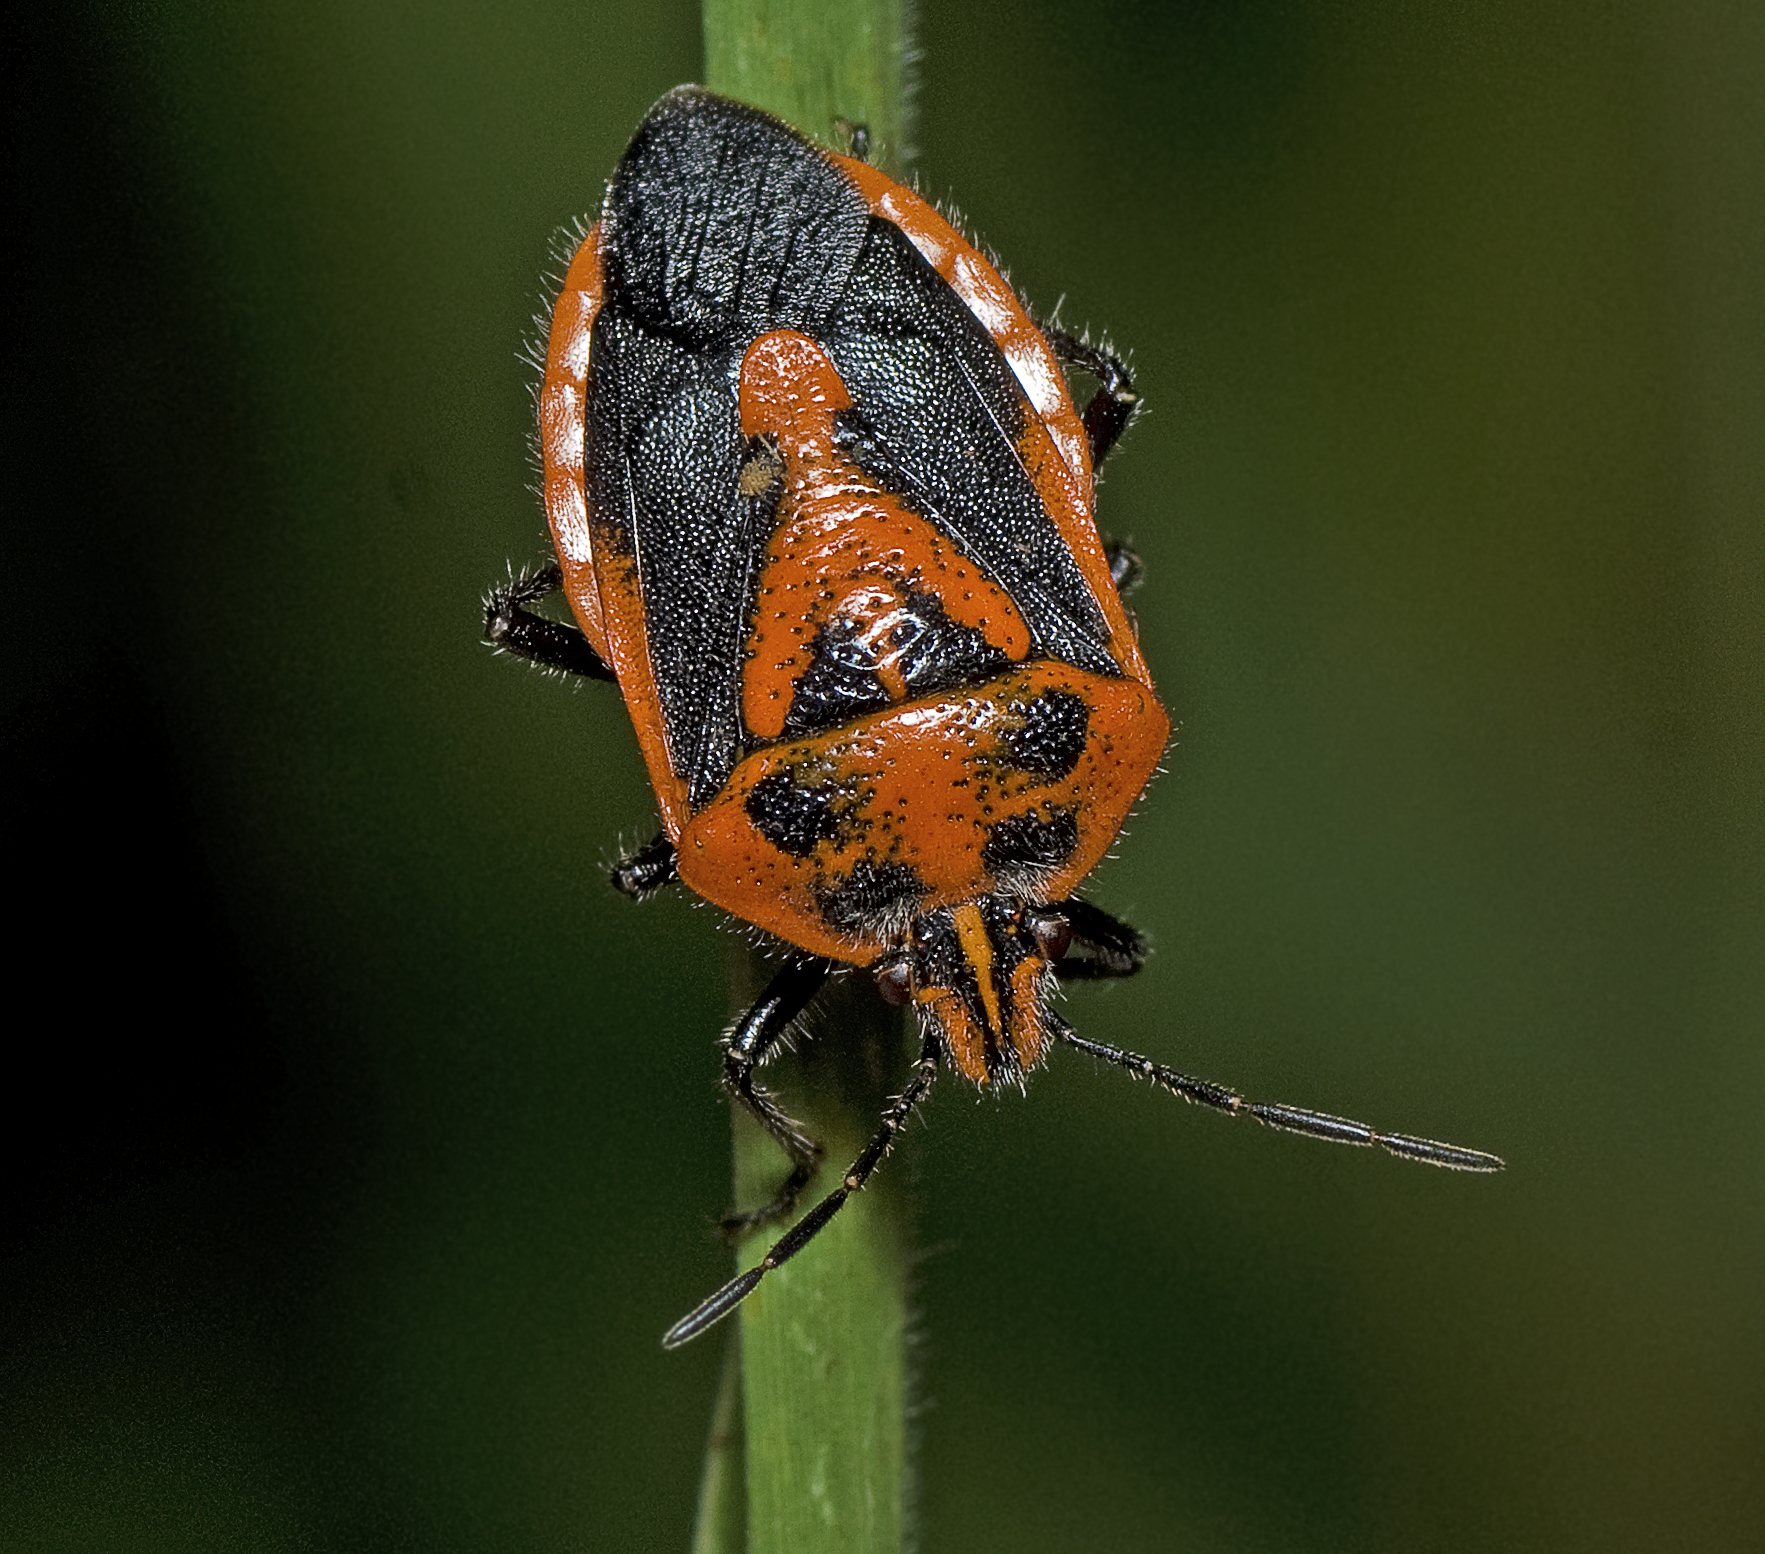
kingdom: Animalia
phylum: Arthropoda
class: Insecta
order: Hemiptera
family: Pentatomidae
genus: Agonoscelis
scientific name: Agonoscelis rutila
